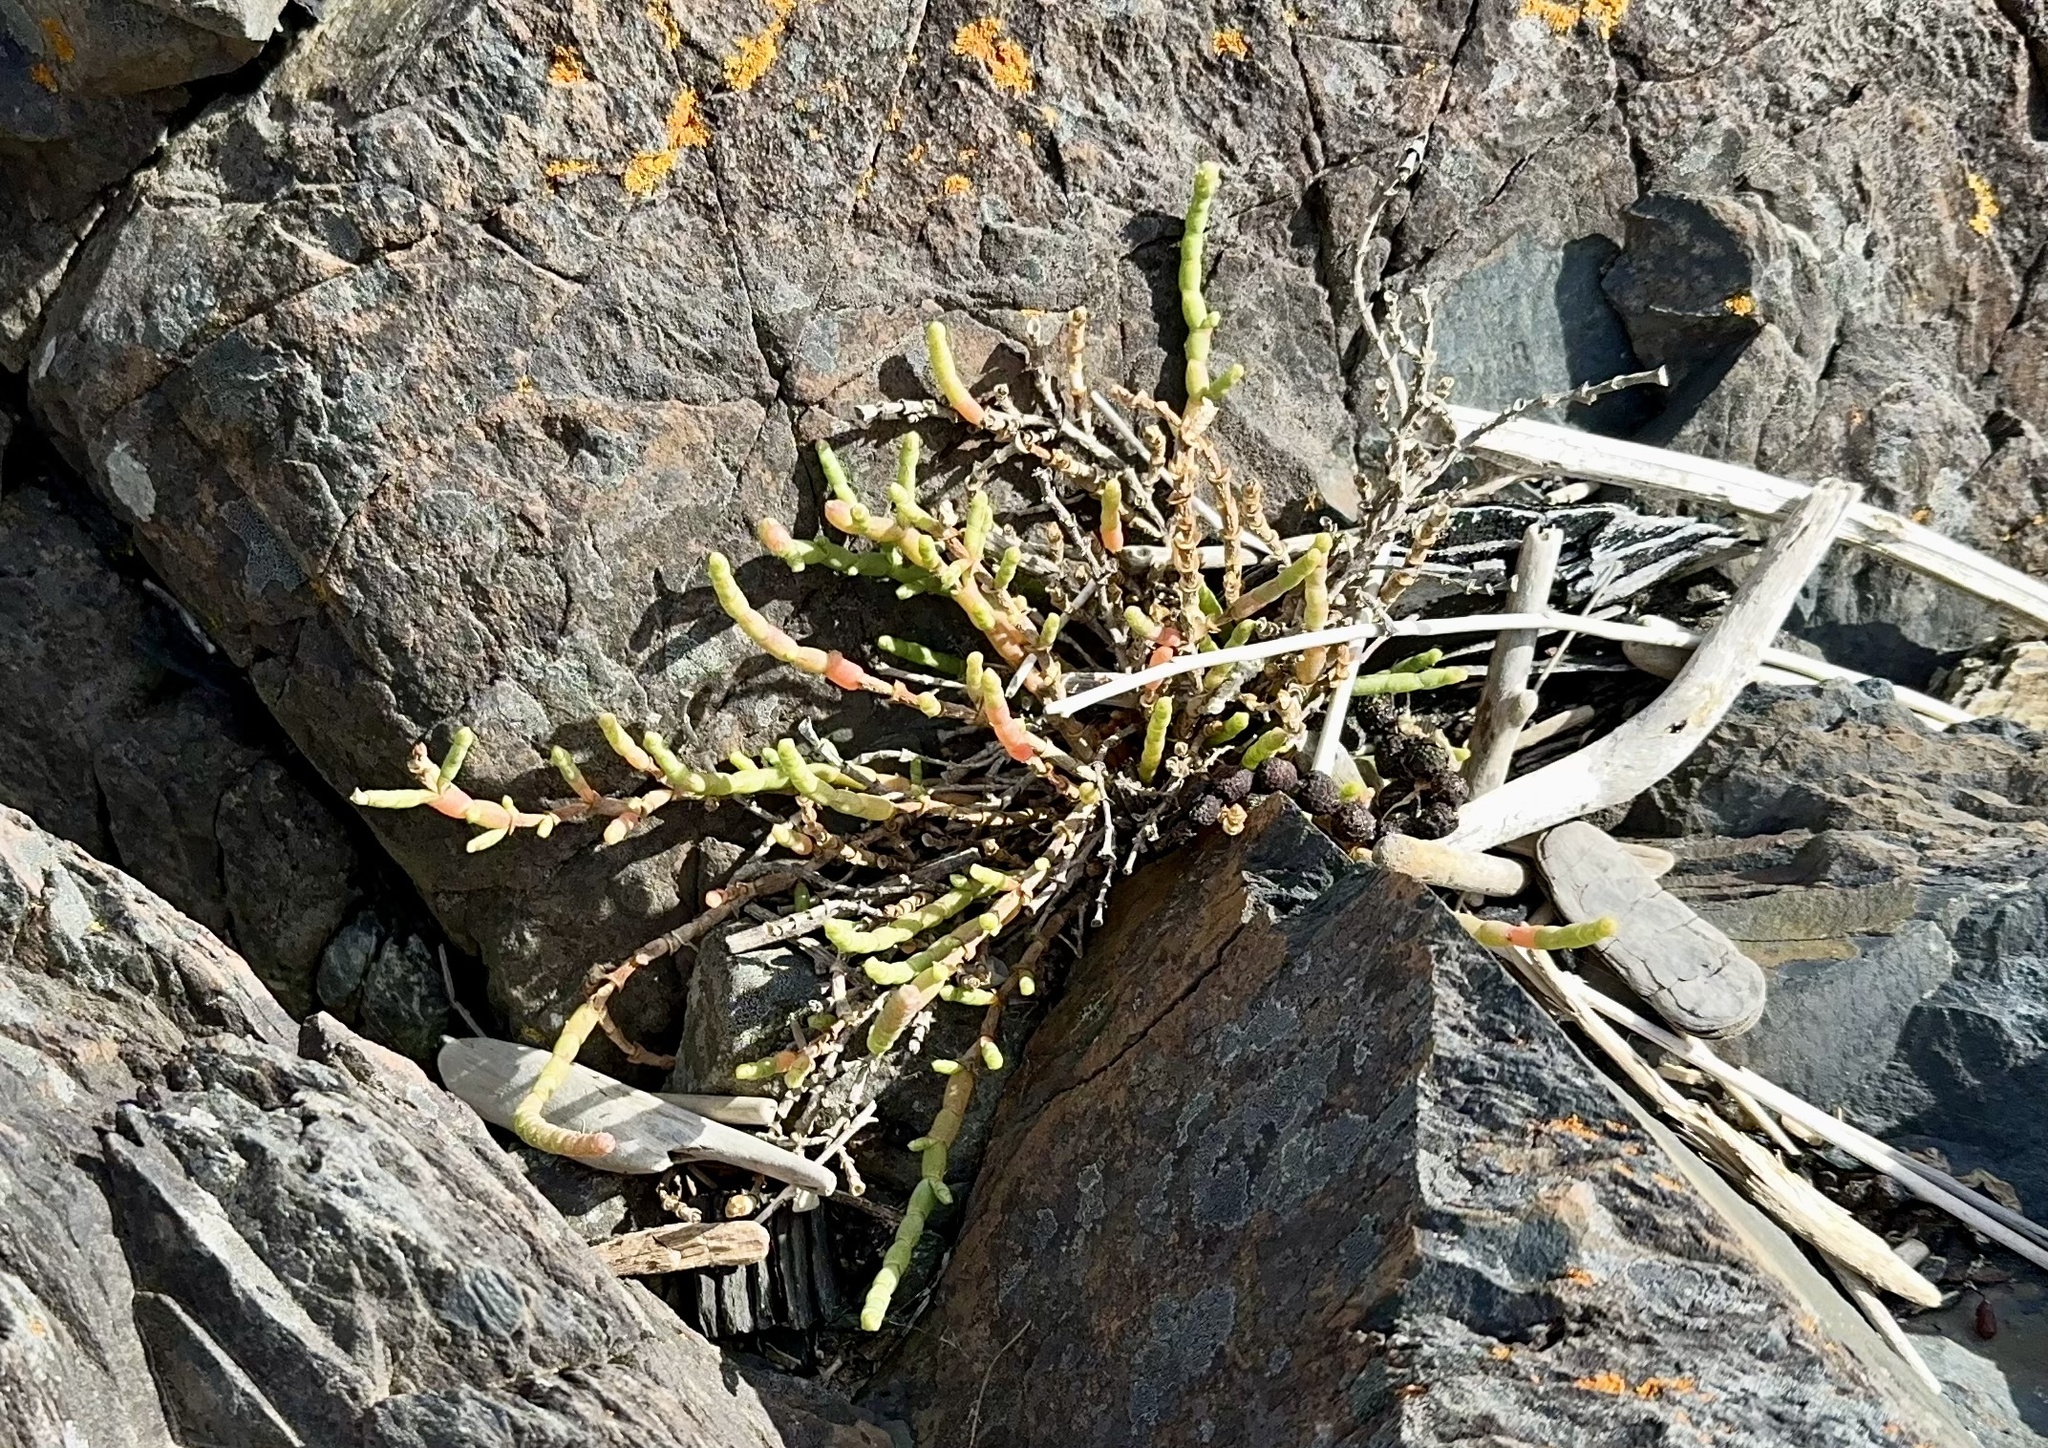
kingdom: Plantae
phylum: Tracheophyta
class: Magnoliopsida
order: Caryophyllales
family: Amaranthaceae
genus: Salicornia
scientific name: Salicornia quinqueflora
